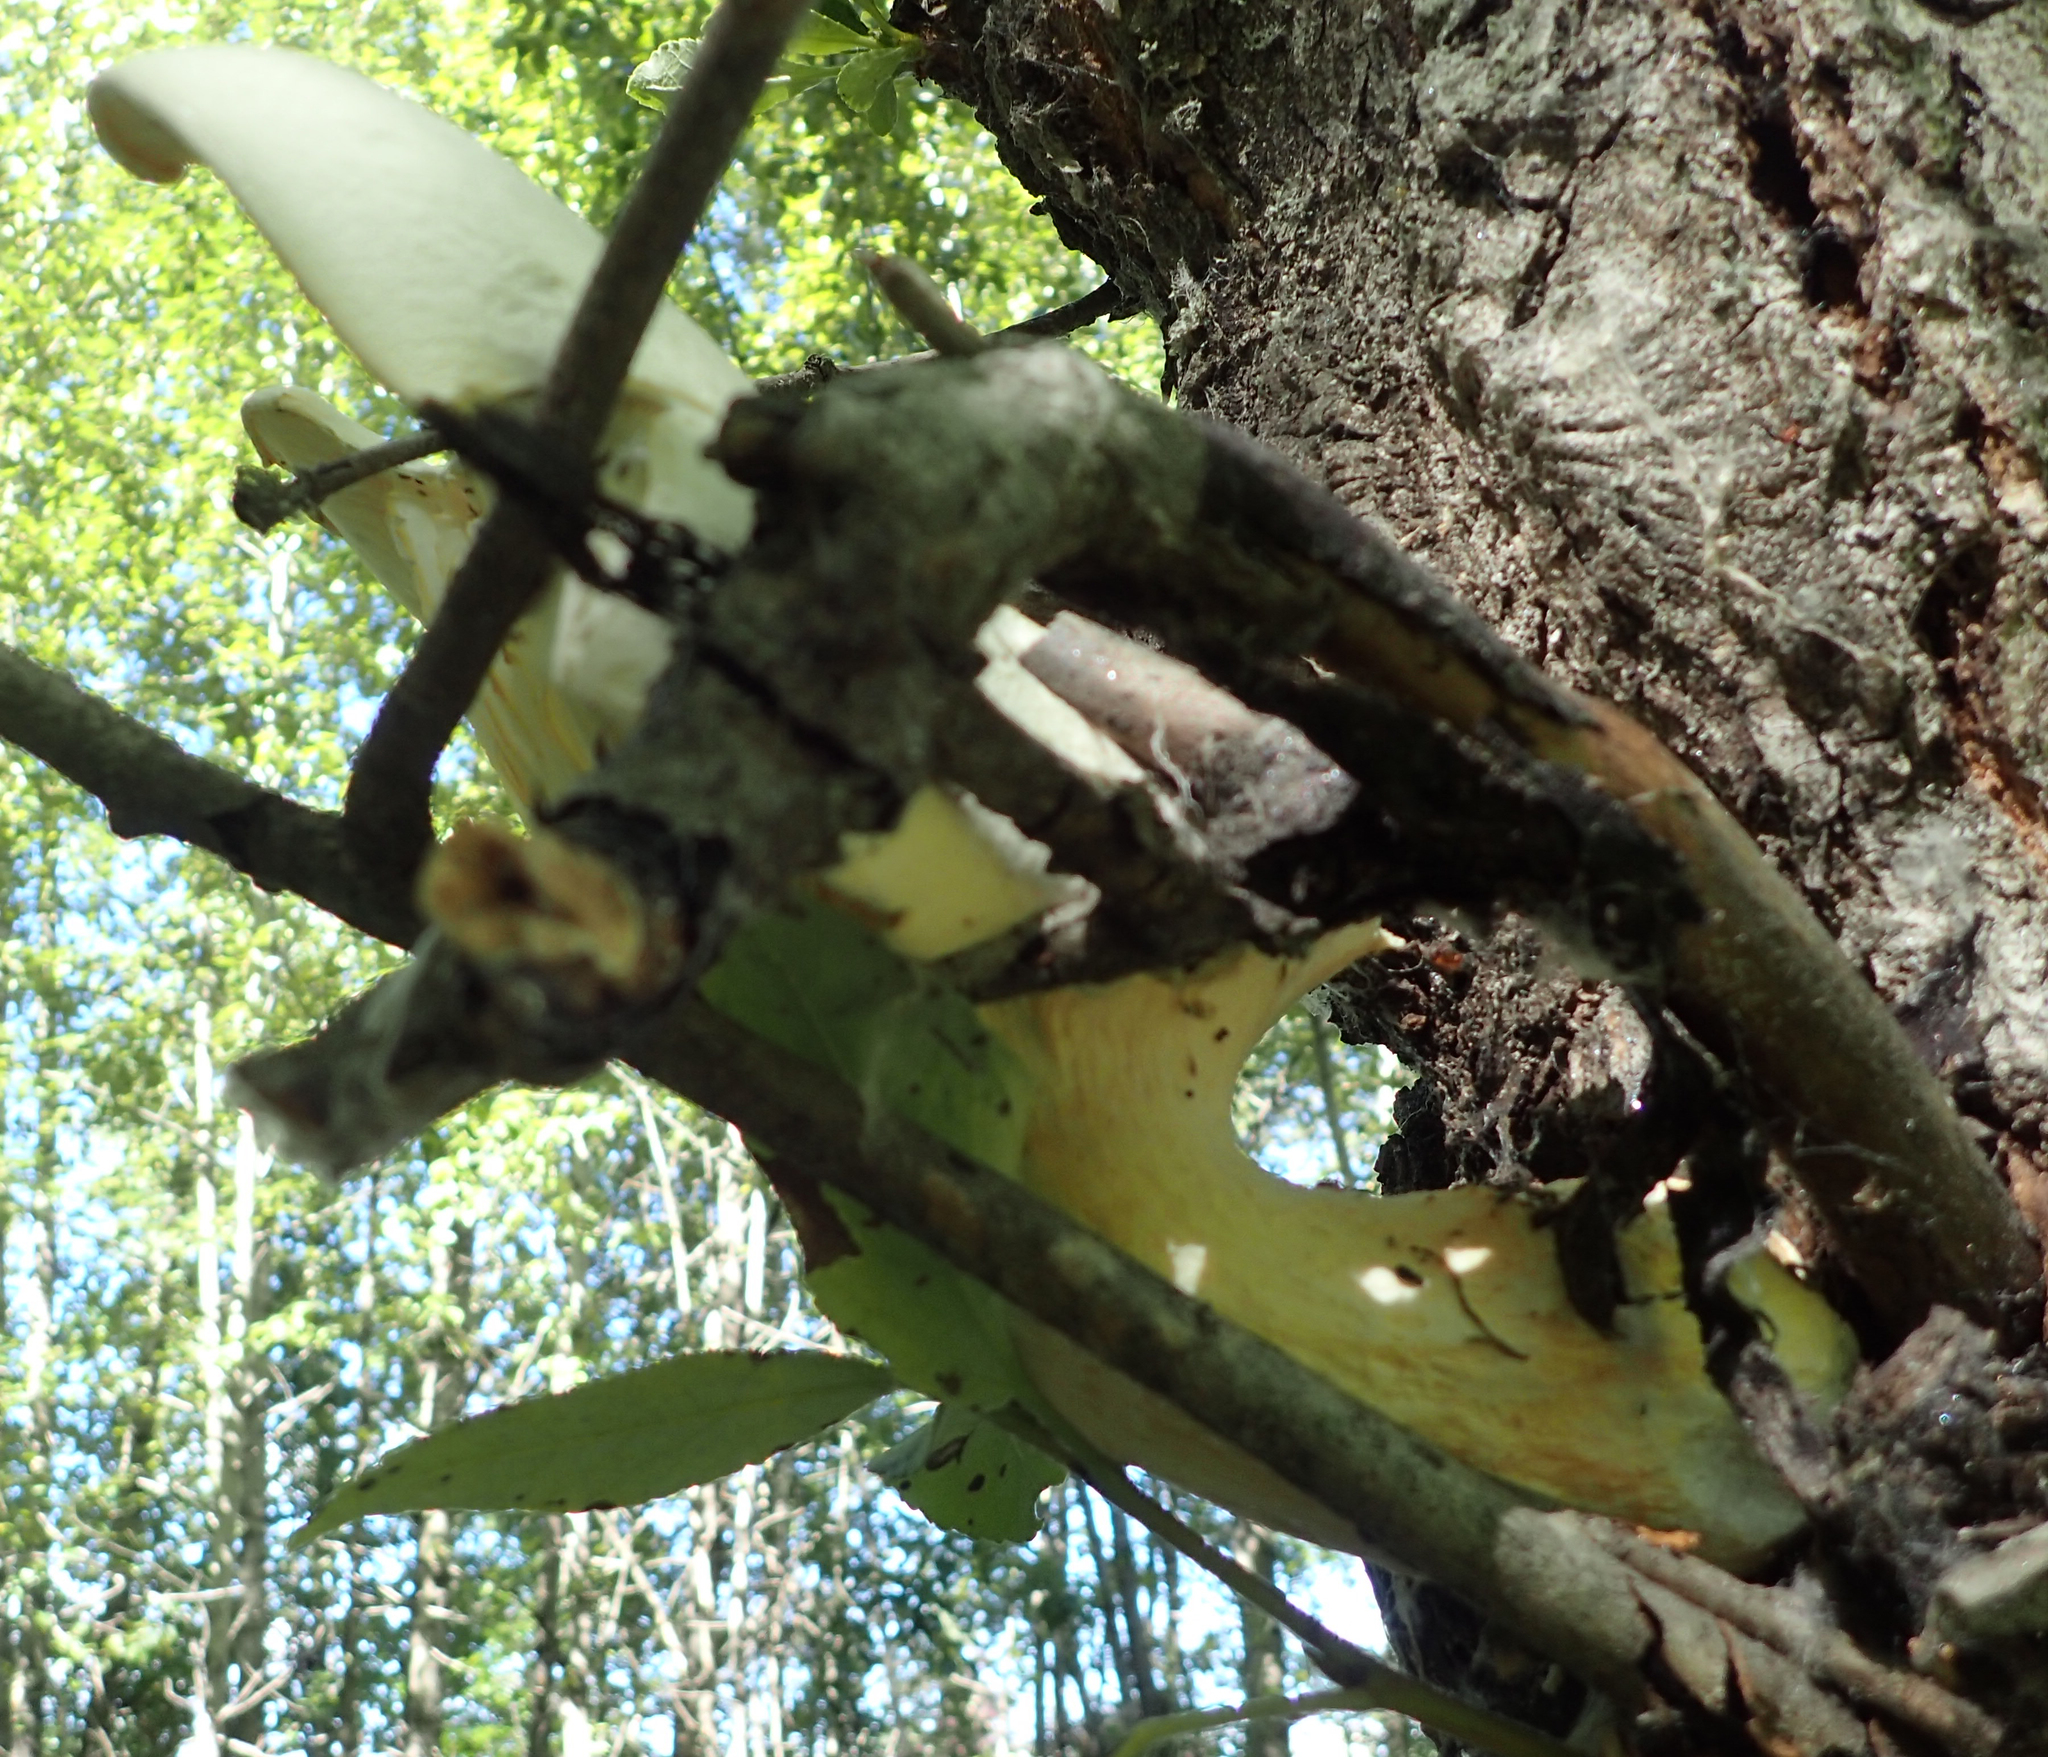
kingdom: Fungi
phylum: Basidiomycota
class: Agaricomycetes
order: Agaricales
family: Pleurotaceae
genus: Pleurotus
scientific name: Pleurotus dryinus
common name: Veiled oyster
